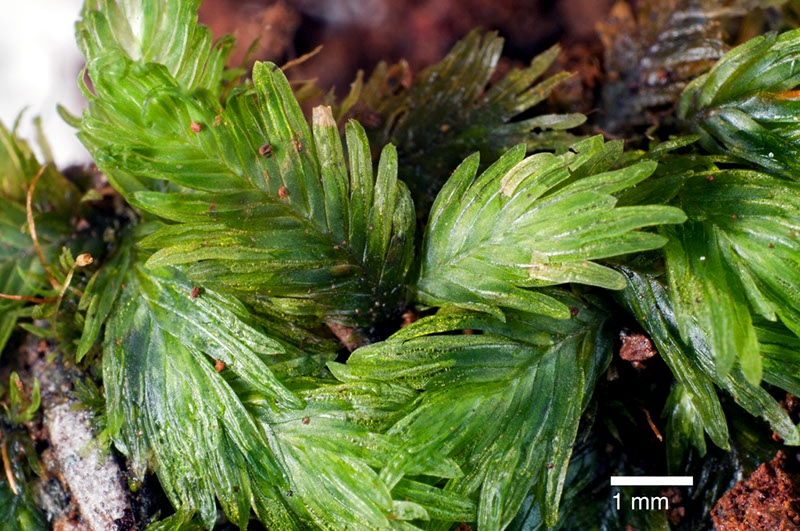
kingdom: Plantae
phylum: Bryophyta
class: Bryopsida
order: Dicranales
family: Fissidentaceae
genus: Fissidens
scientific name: Fissidens oblongifolius
